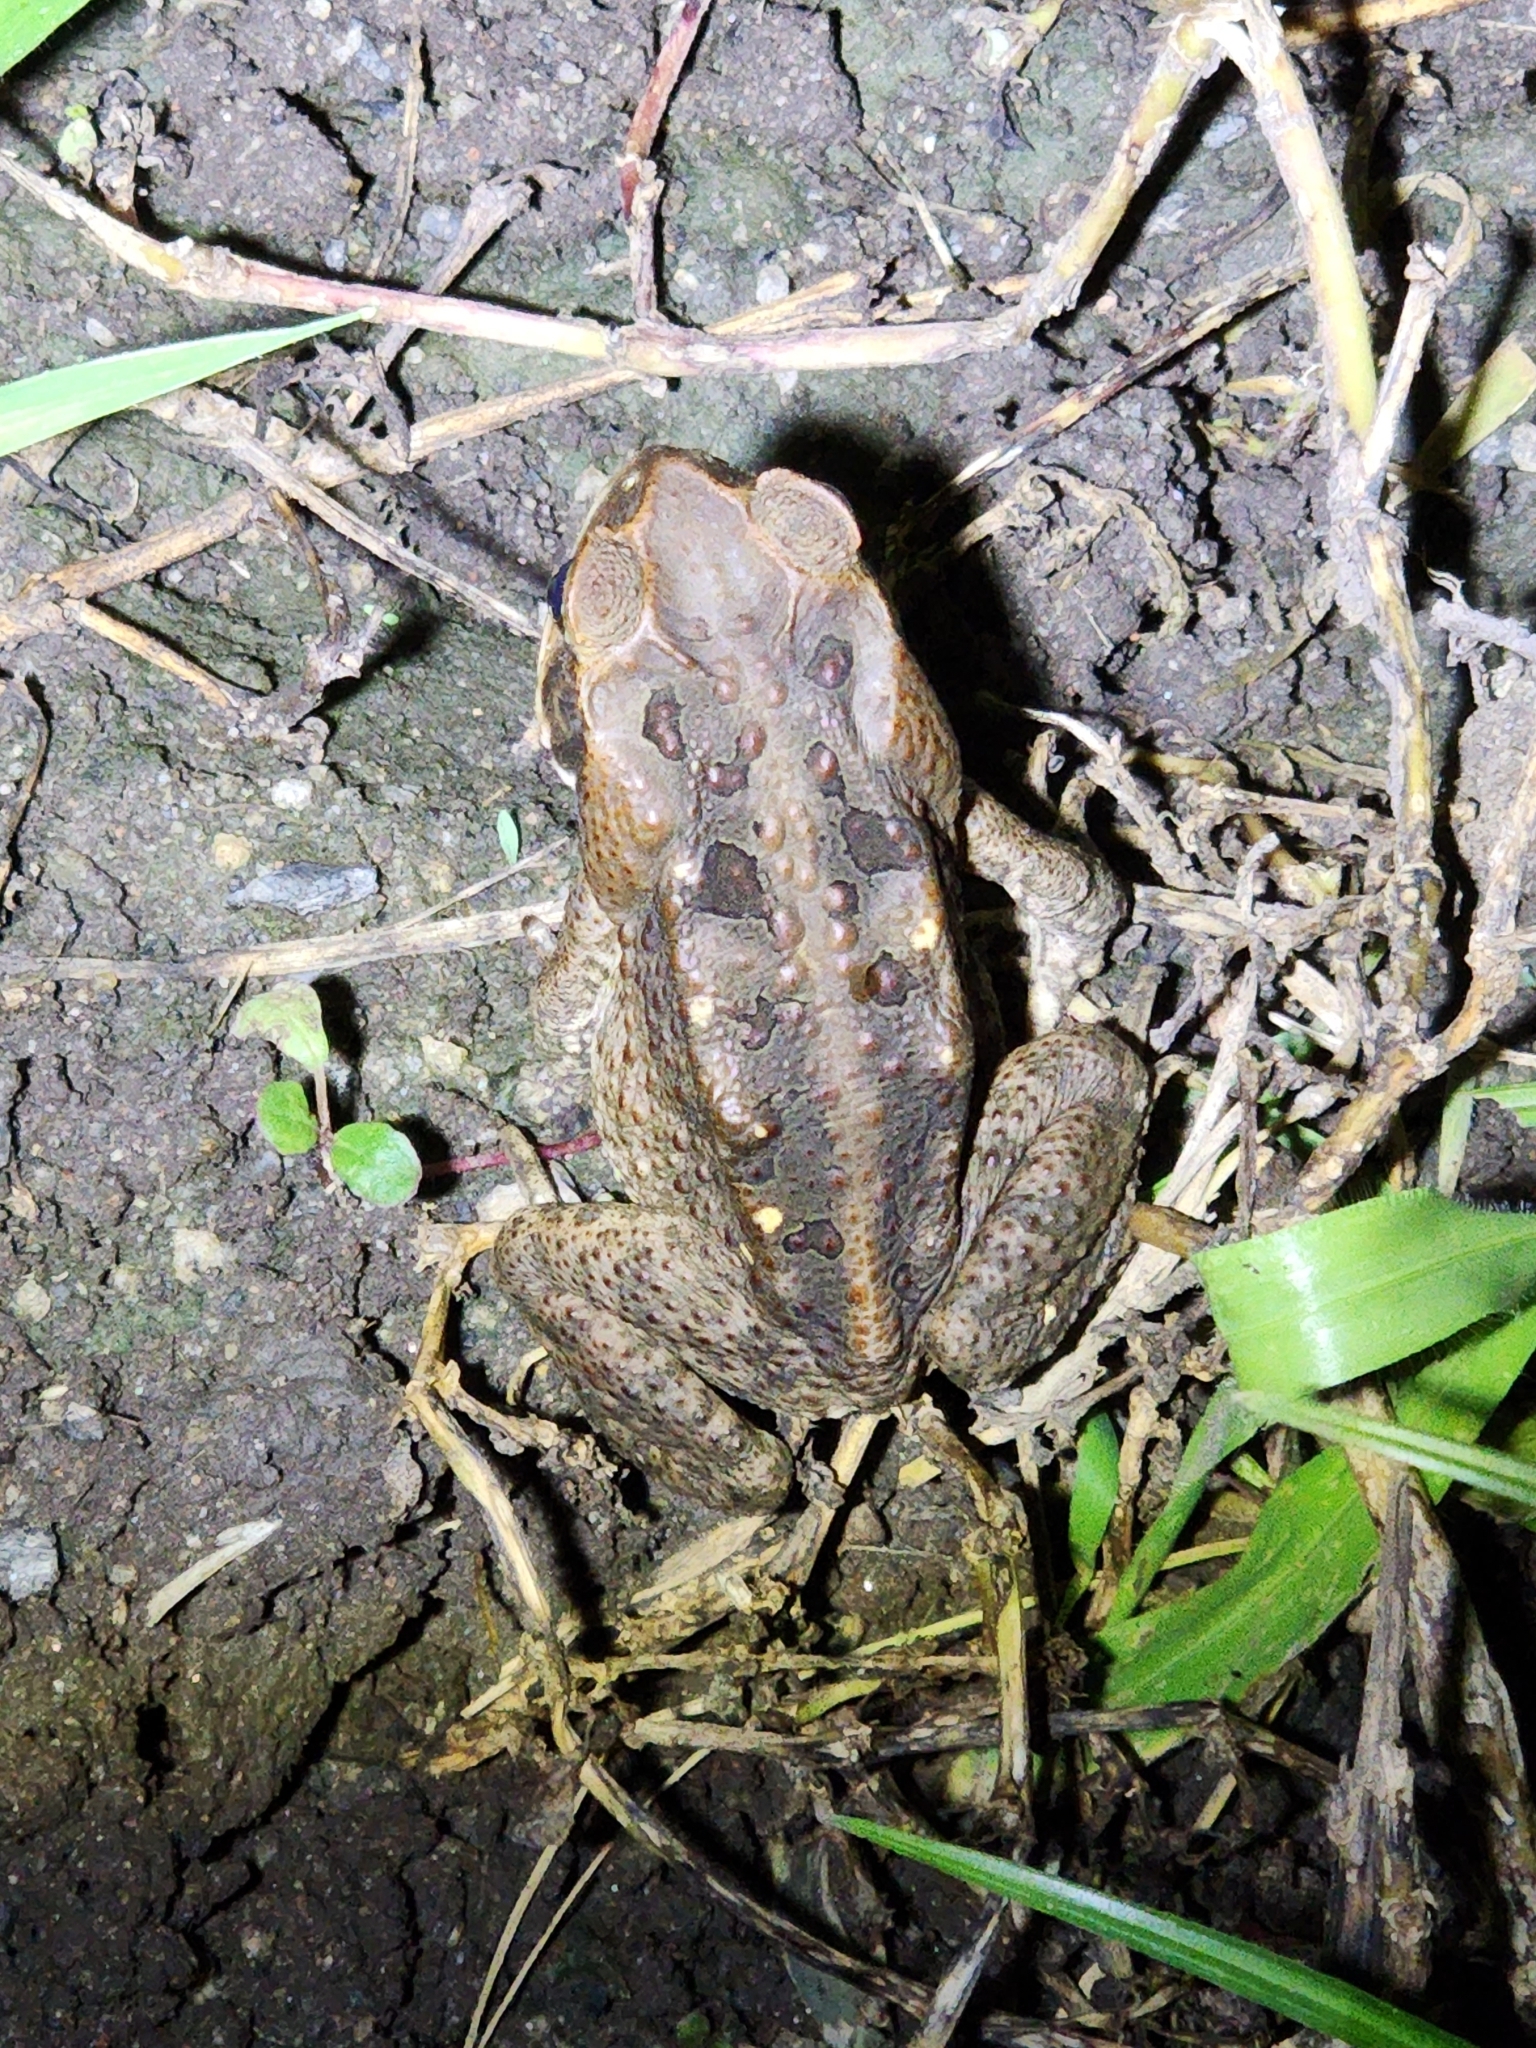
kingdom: Animalia
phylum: Chordata
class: Amphibia
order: Anura
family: Bufonidae
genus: Rhinella
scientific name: Rhinella marina
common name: Cane toad
